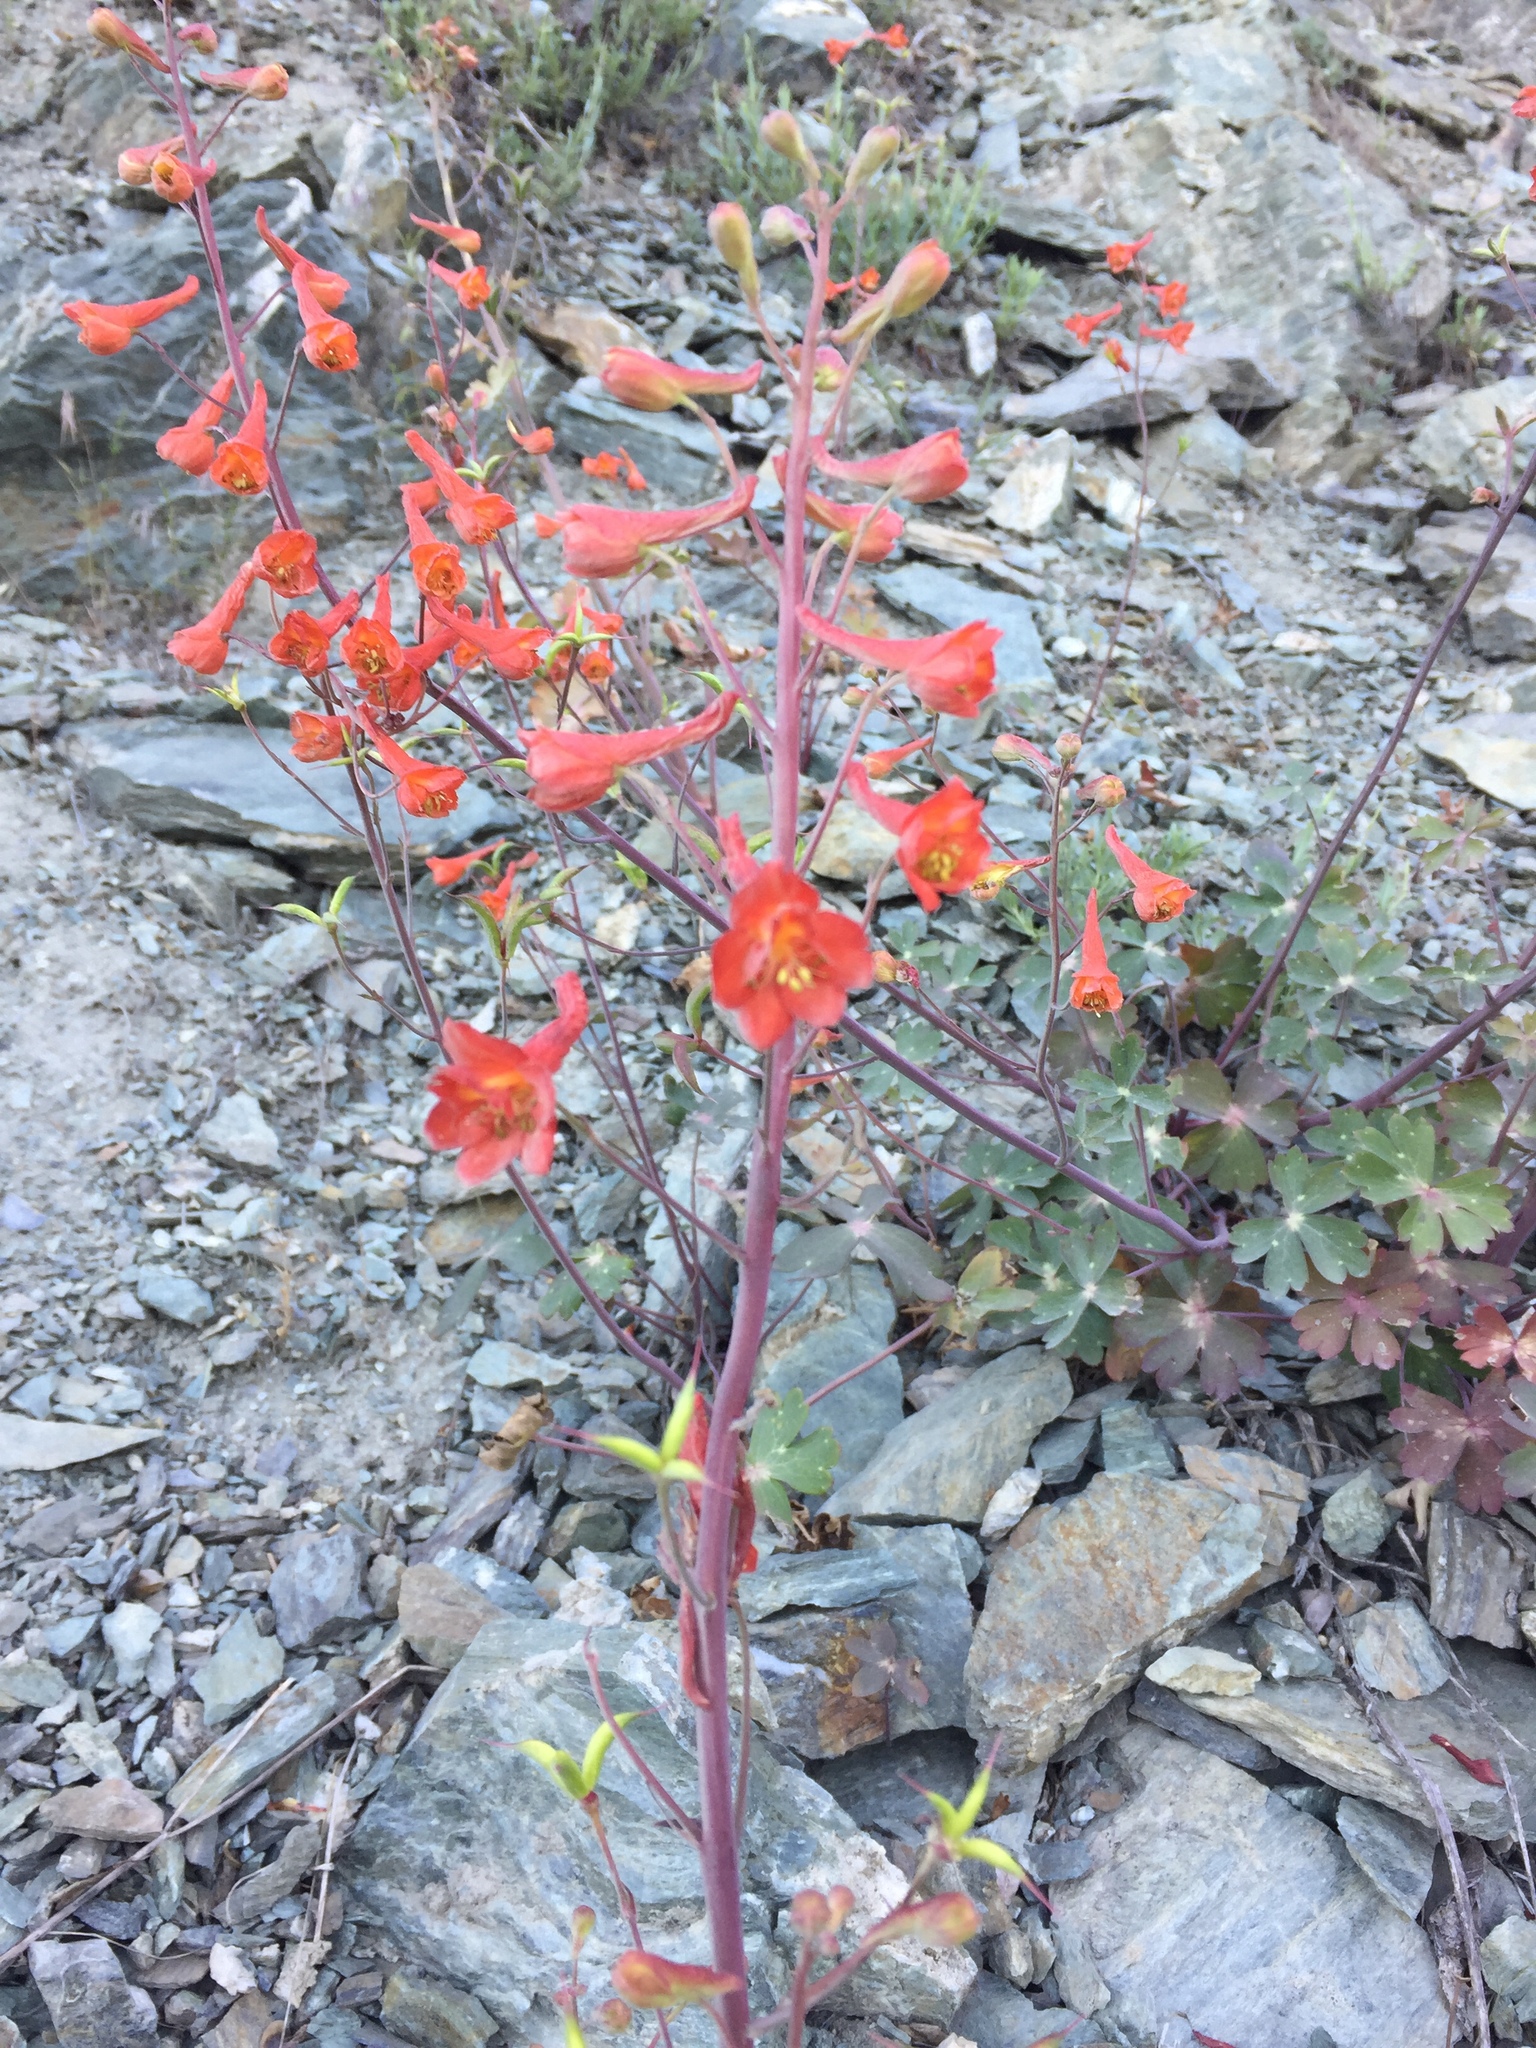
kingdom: Plantae
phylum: Tracheophyta
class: Magnoliopsida
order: Ranunculales
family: Ranunculaceae
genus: Delphinium
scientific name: Delphinium nudicaule
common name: Red larkspur
